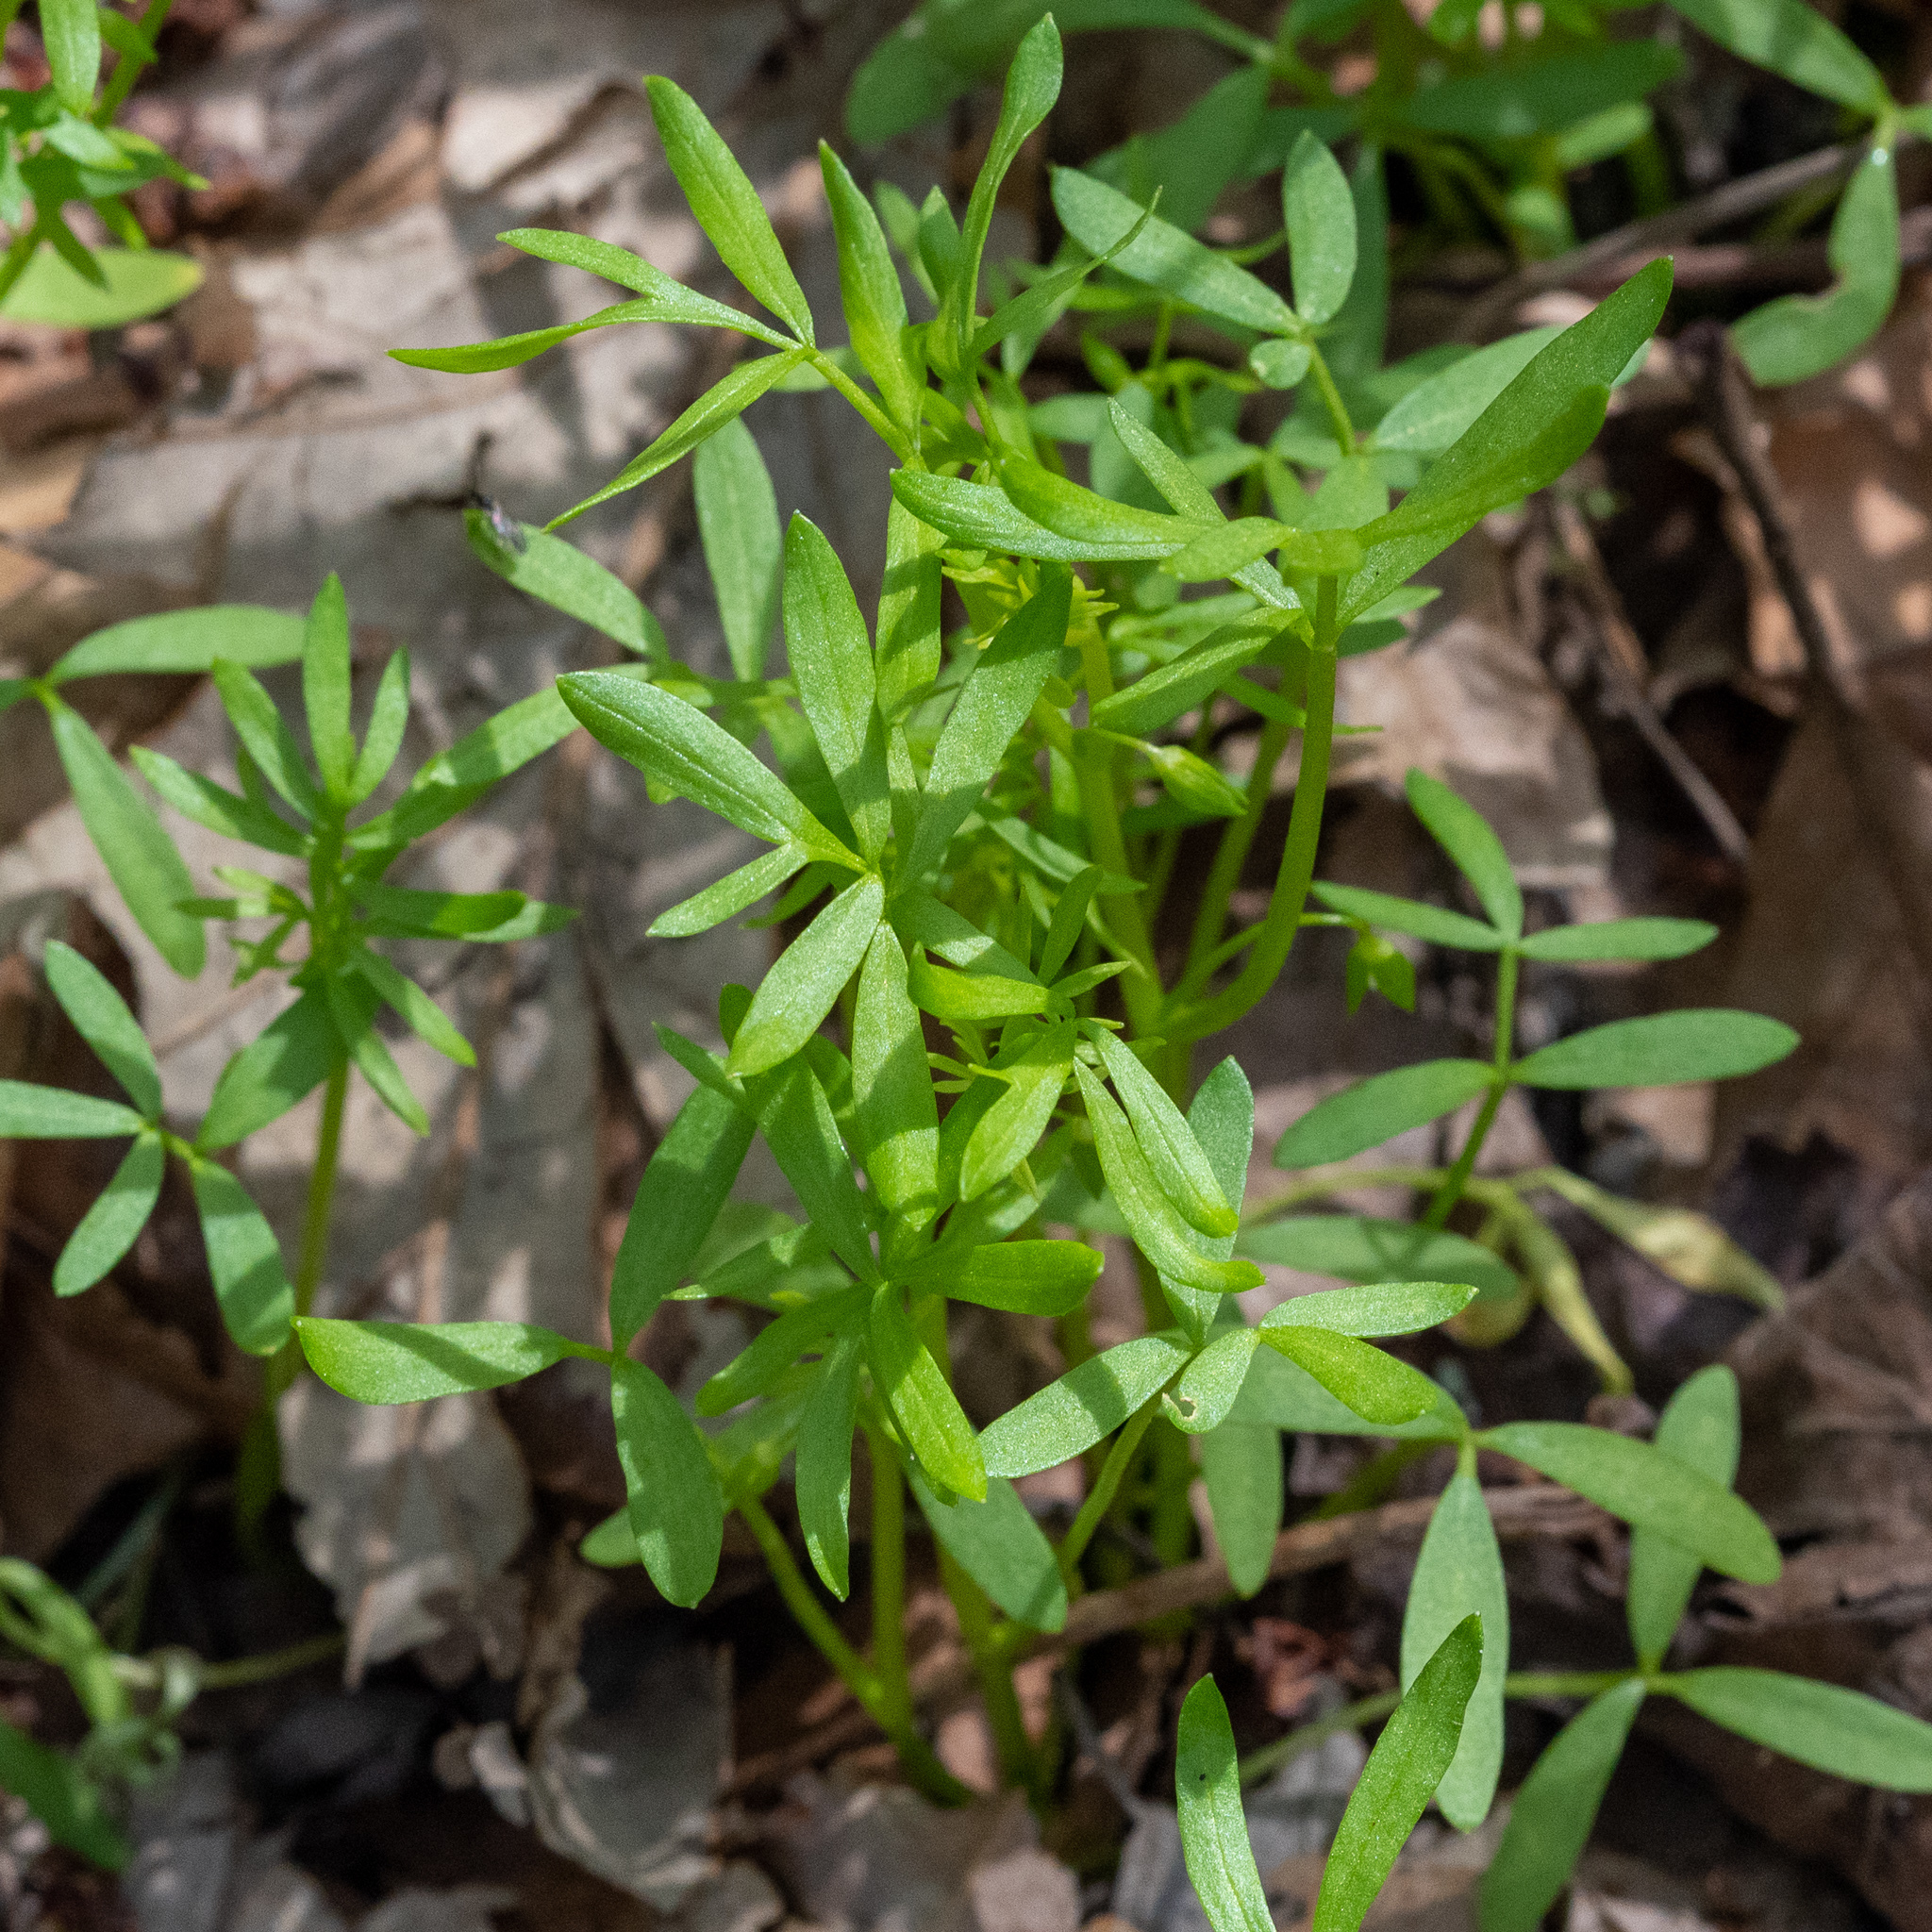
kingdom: Plantae
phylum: Tracheophyta
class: Magnoliopsida
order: Brassicales
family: Limnanthaceae
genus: Floerkea
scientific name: Floerkea proserpinacoides
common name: False mermaid
